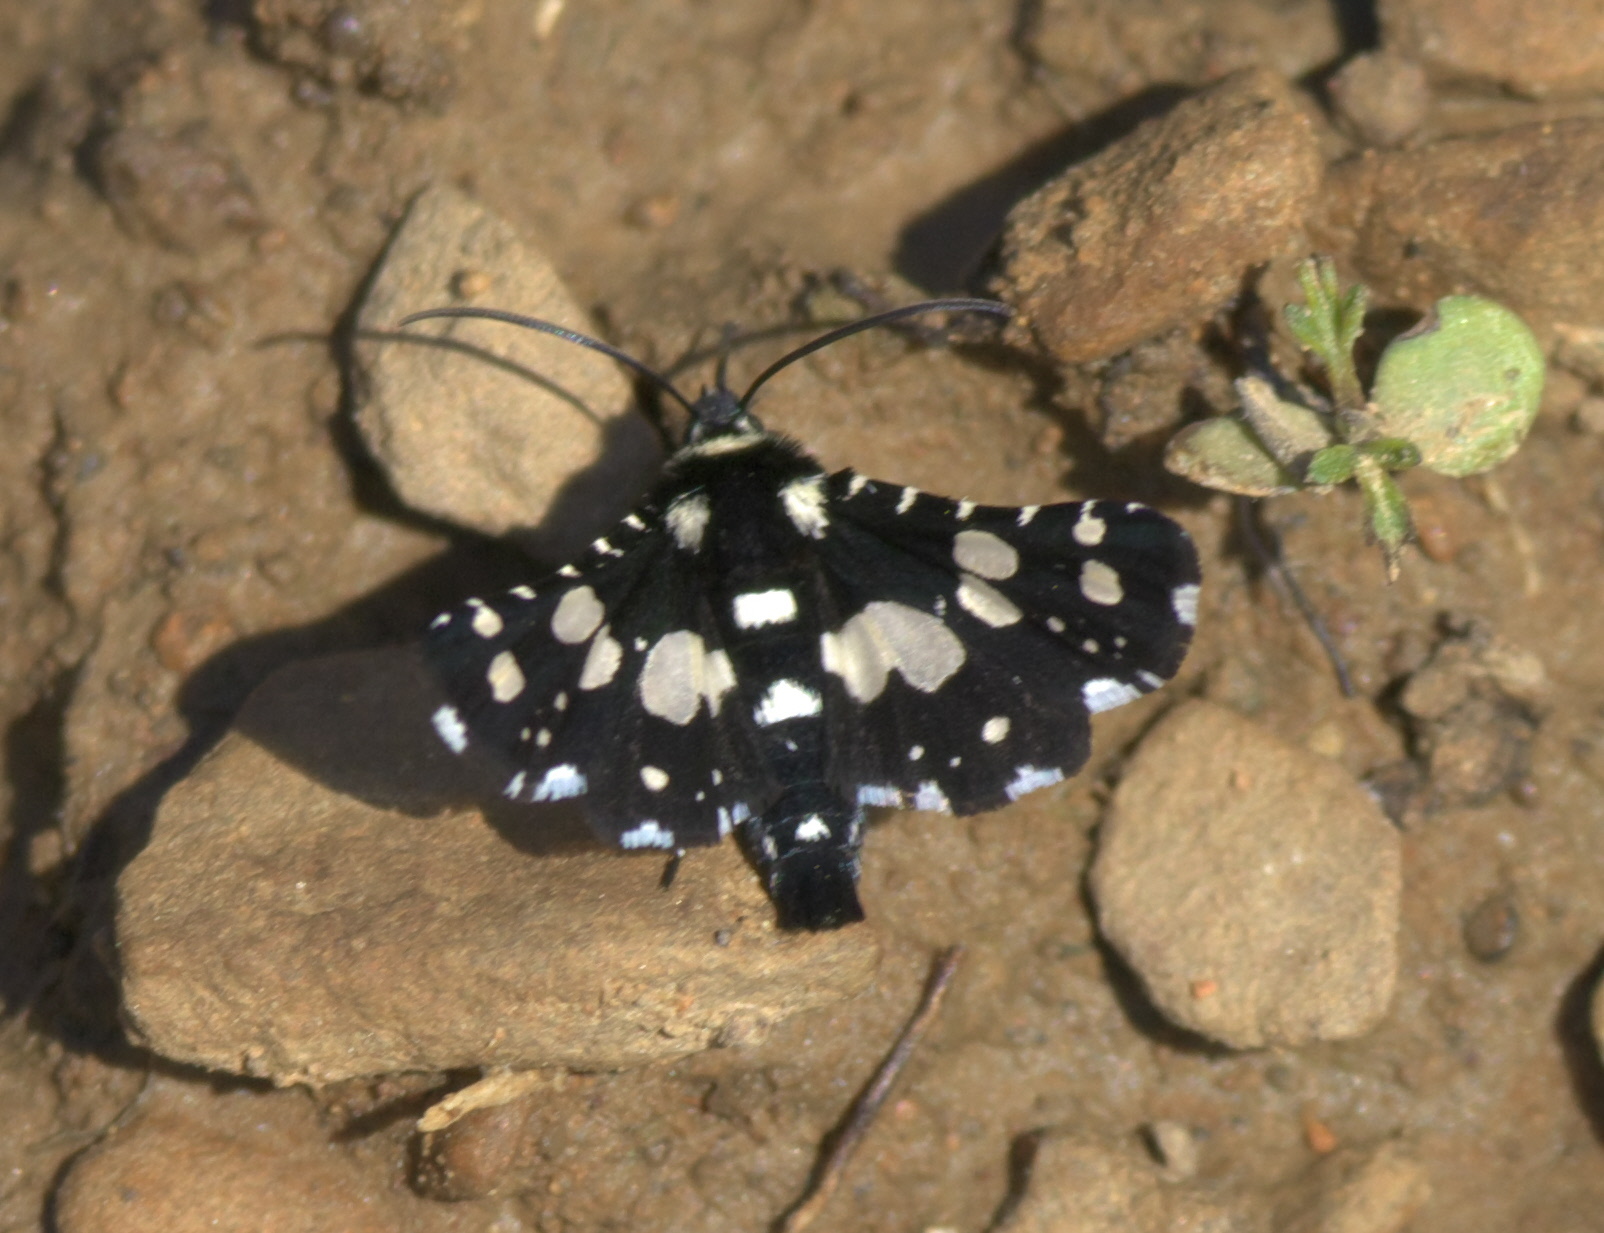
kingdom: Animalia
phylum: Arthropoda
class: Insecta
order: Lepidoptera
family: Thyrididae
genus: Pseudothyris
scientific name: Pseudothyris sepulchralis
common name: Mournful thyris moth
